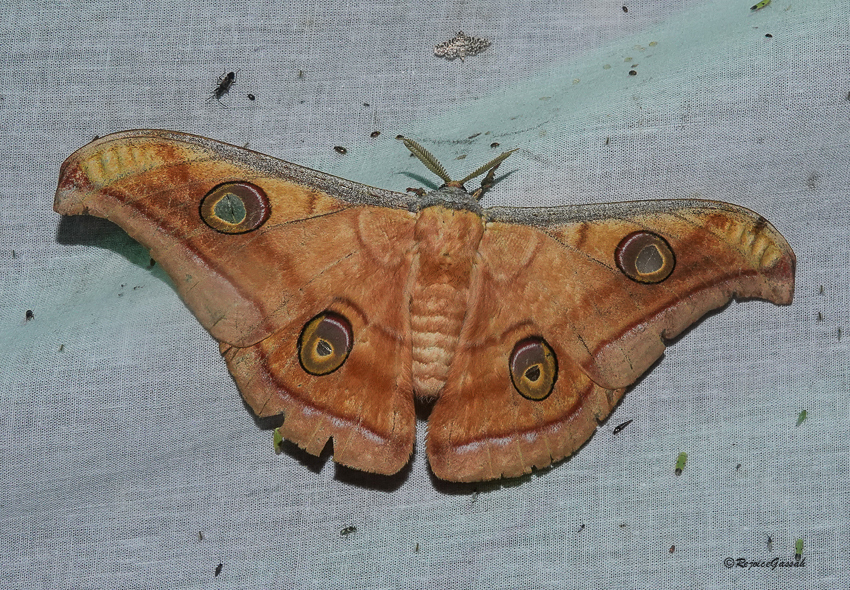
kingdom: Animalia
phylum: Arthropoda
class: Insecta
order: Lepidoptera
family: Saturniidae
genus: Antheraea
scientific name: Antheraea paphia
